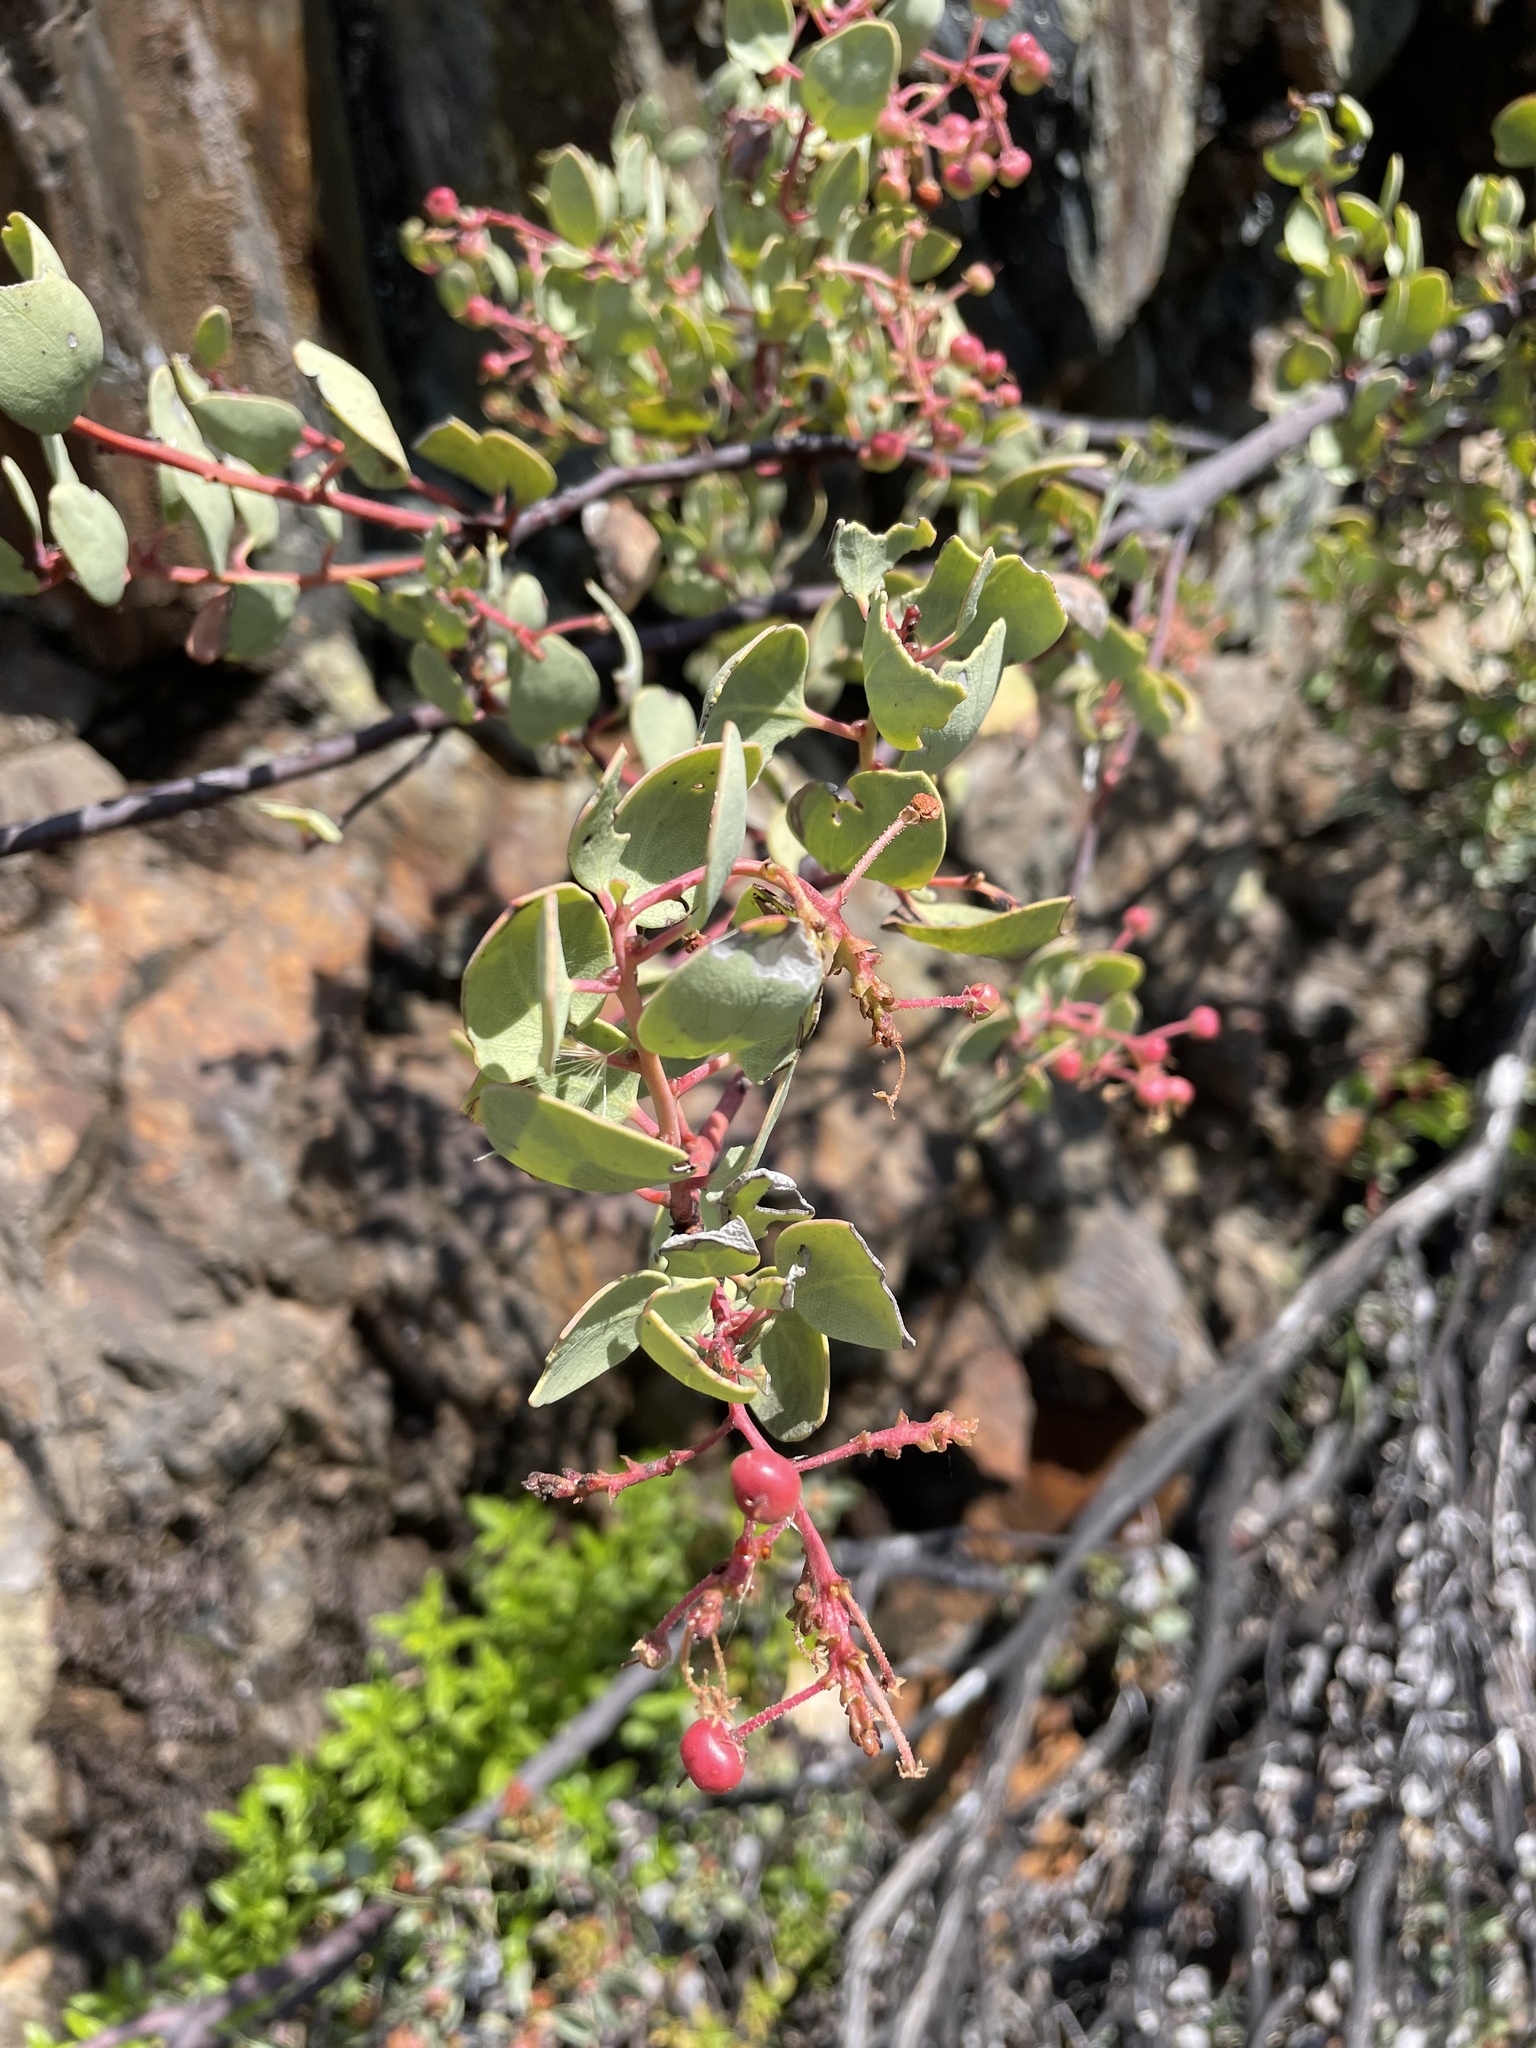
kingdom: Plantae
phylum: Tracheophyta
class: Magnoliopsida
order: Ericales
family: Ericaceae
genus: Arctostaphylos
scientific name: Arctostaphylos viscida
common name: White-leaf manzanita
